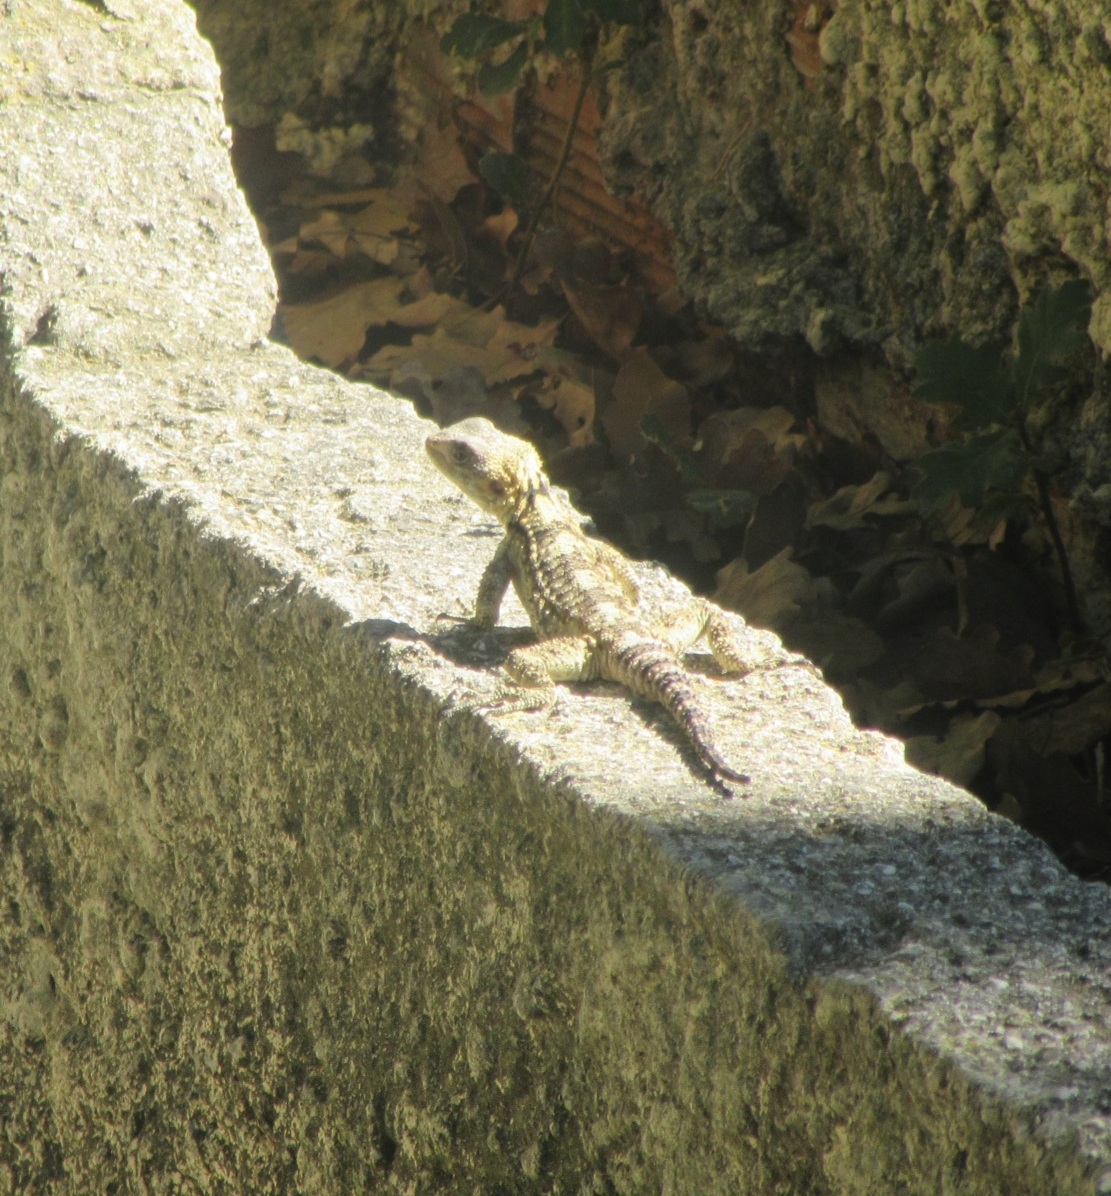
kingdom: Animalia
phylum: Chordata
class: Squamata
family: Agamidae
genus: Stellagama
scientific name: Stellagama stellio
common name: Starred agama
